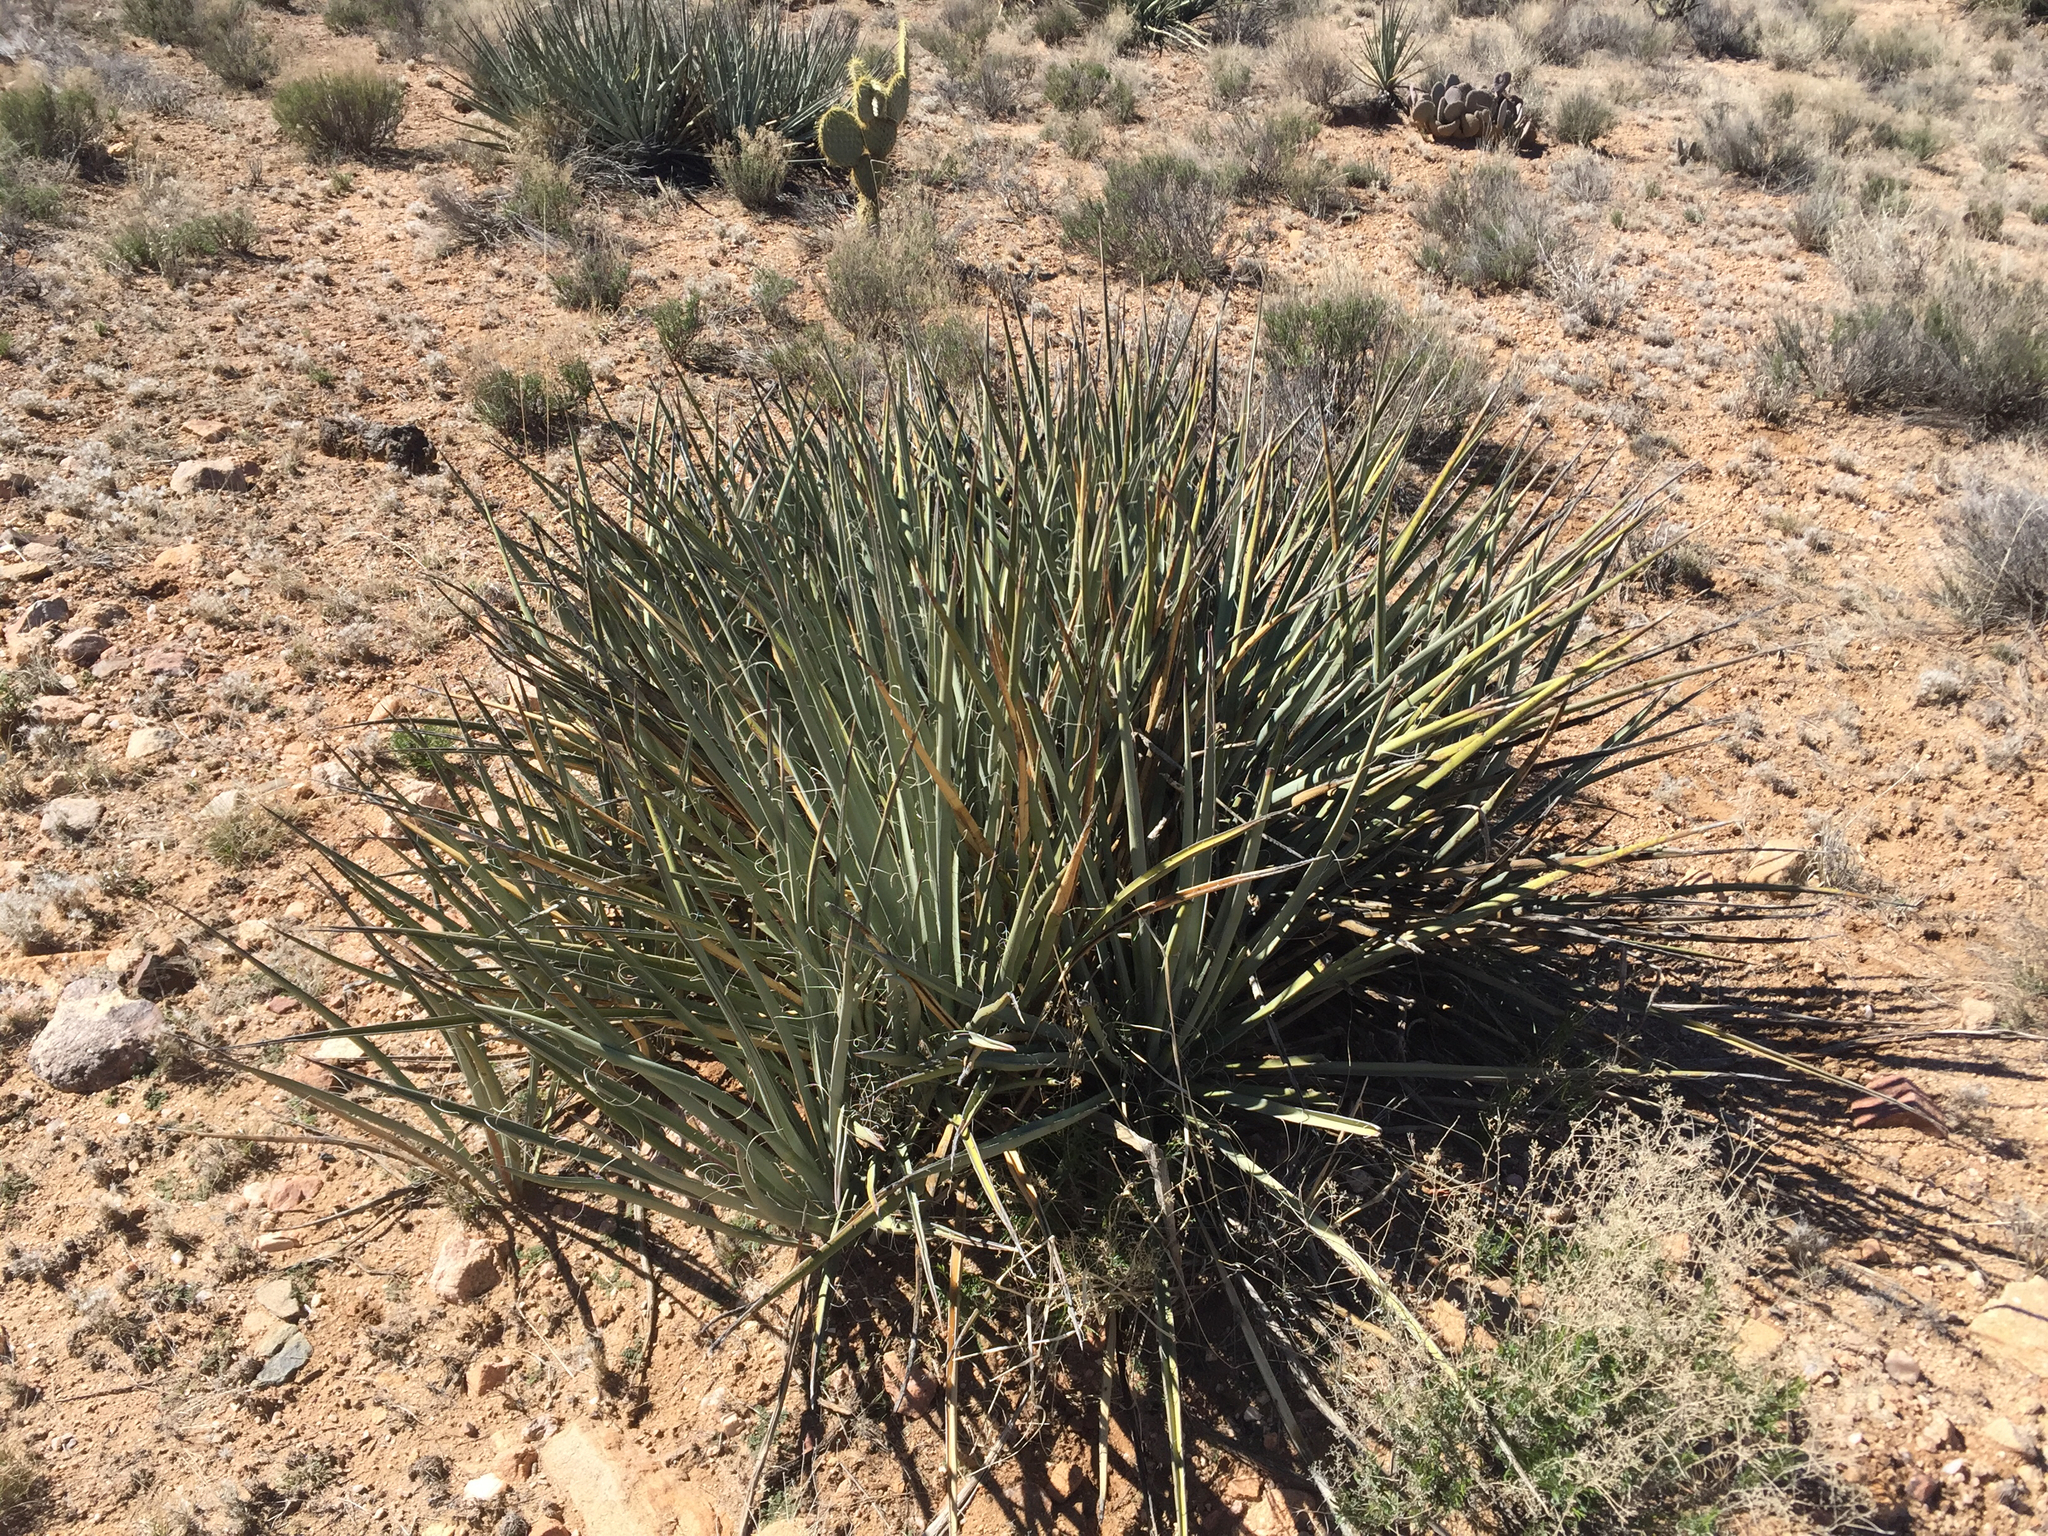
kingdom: Plantae
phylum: Tracheophyta
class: Liliopsida
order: Asparagales
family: Asparagaceae
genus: Yucca
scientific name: Yucca baccata
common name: Banana yucca
